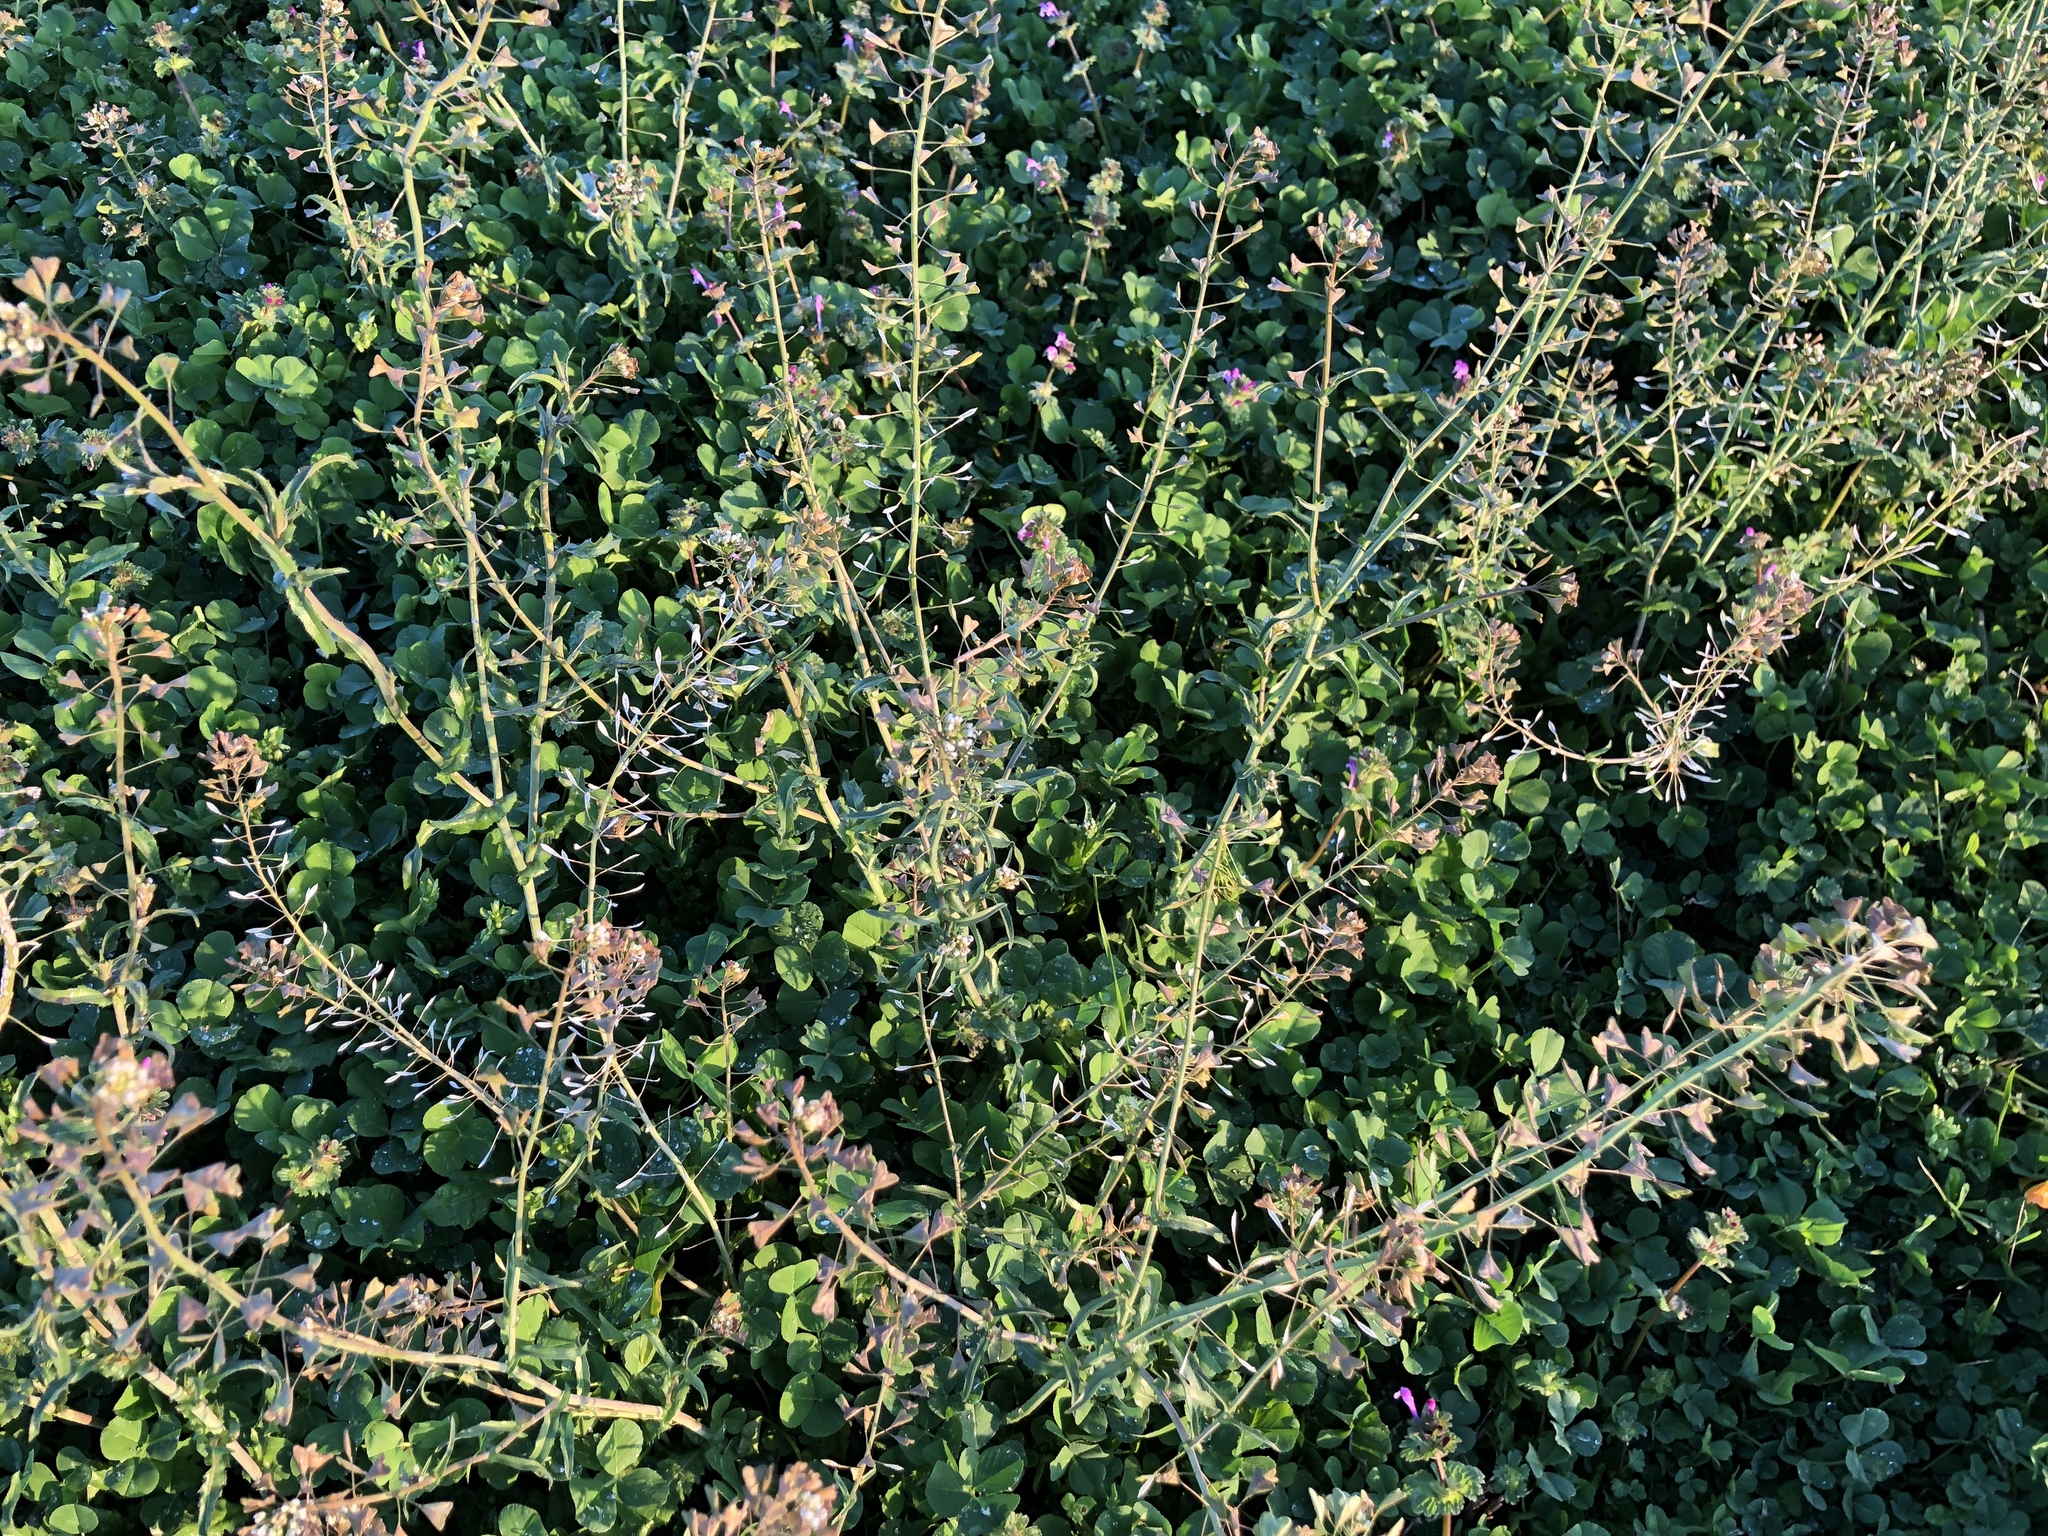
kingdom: Plantae
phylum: Tracheophyta
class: Magnoliopsida
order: Brassicales
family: Brassicaceae
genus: Capsella
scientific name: Capsella bursa-pastoris
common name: Shepherd's purse
